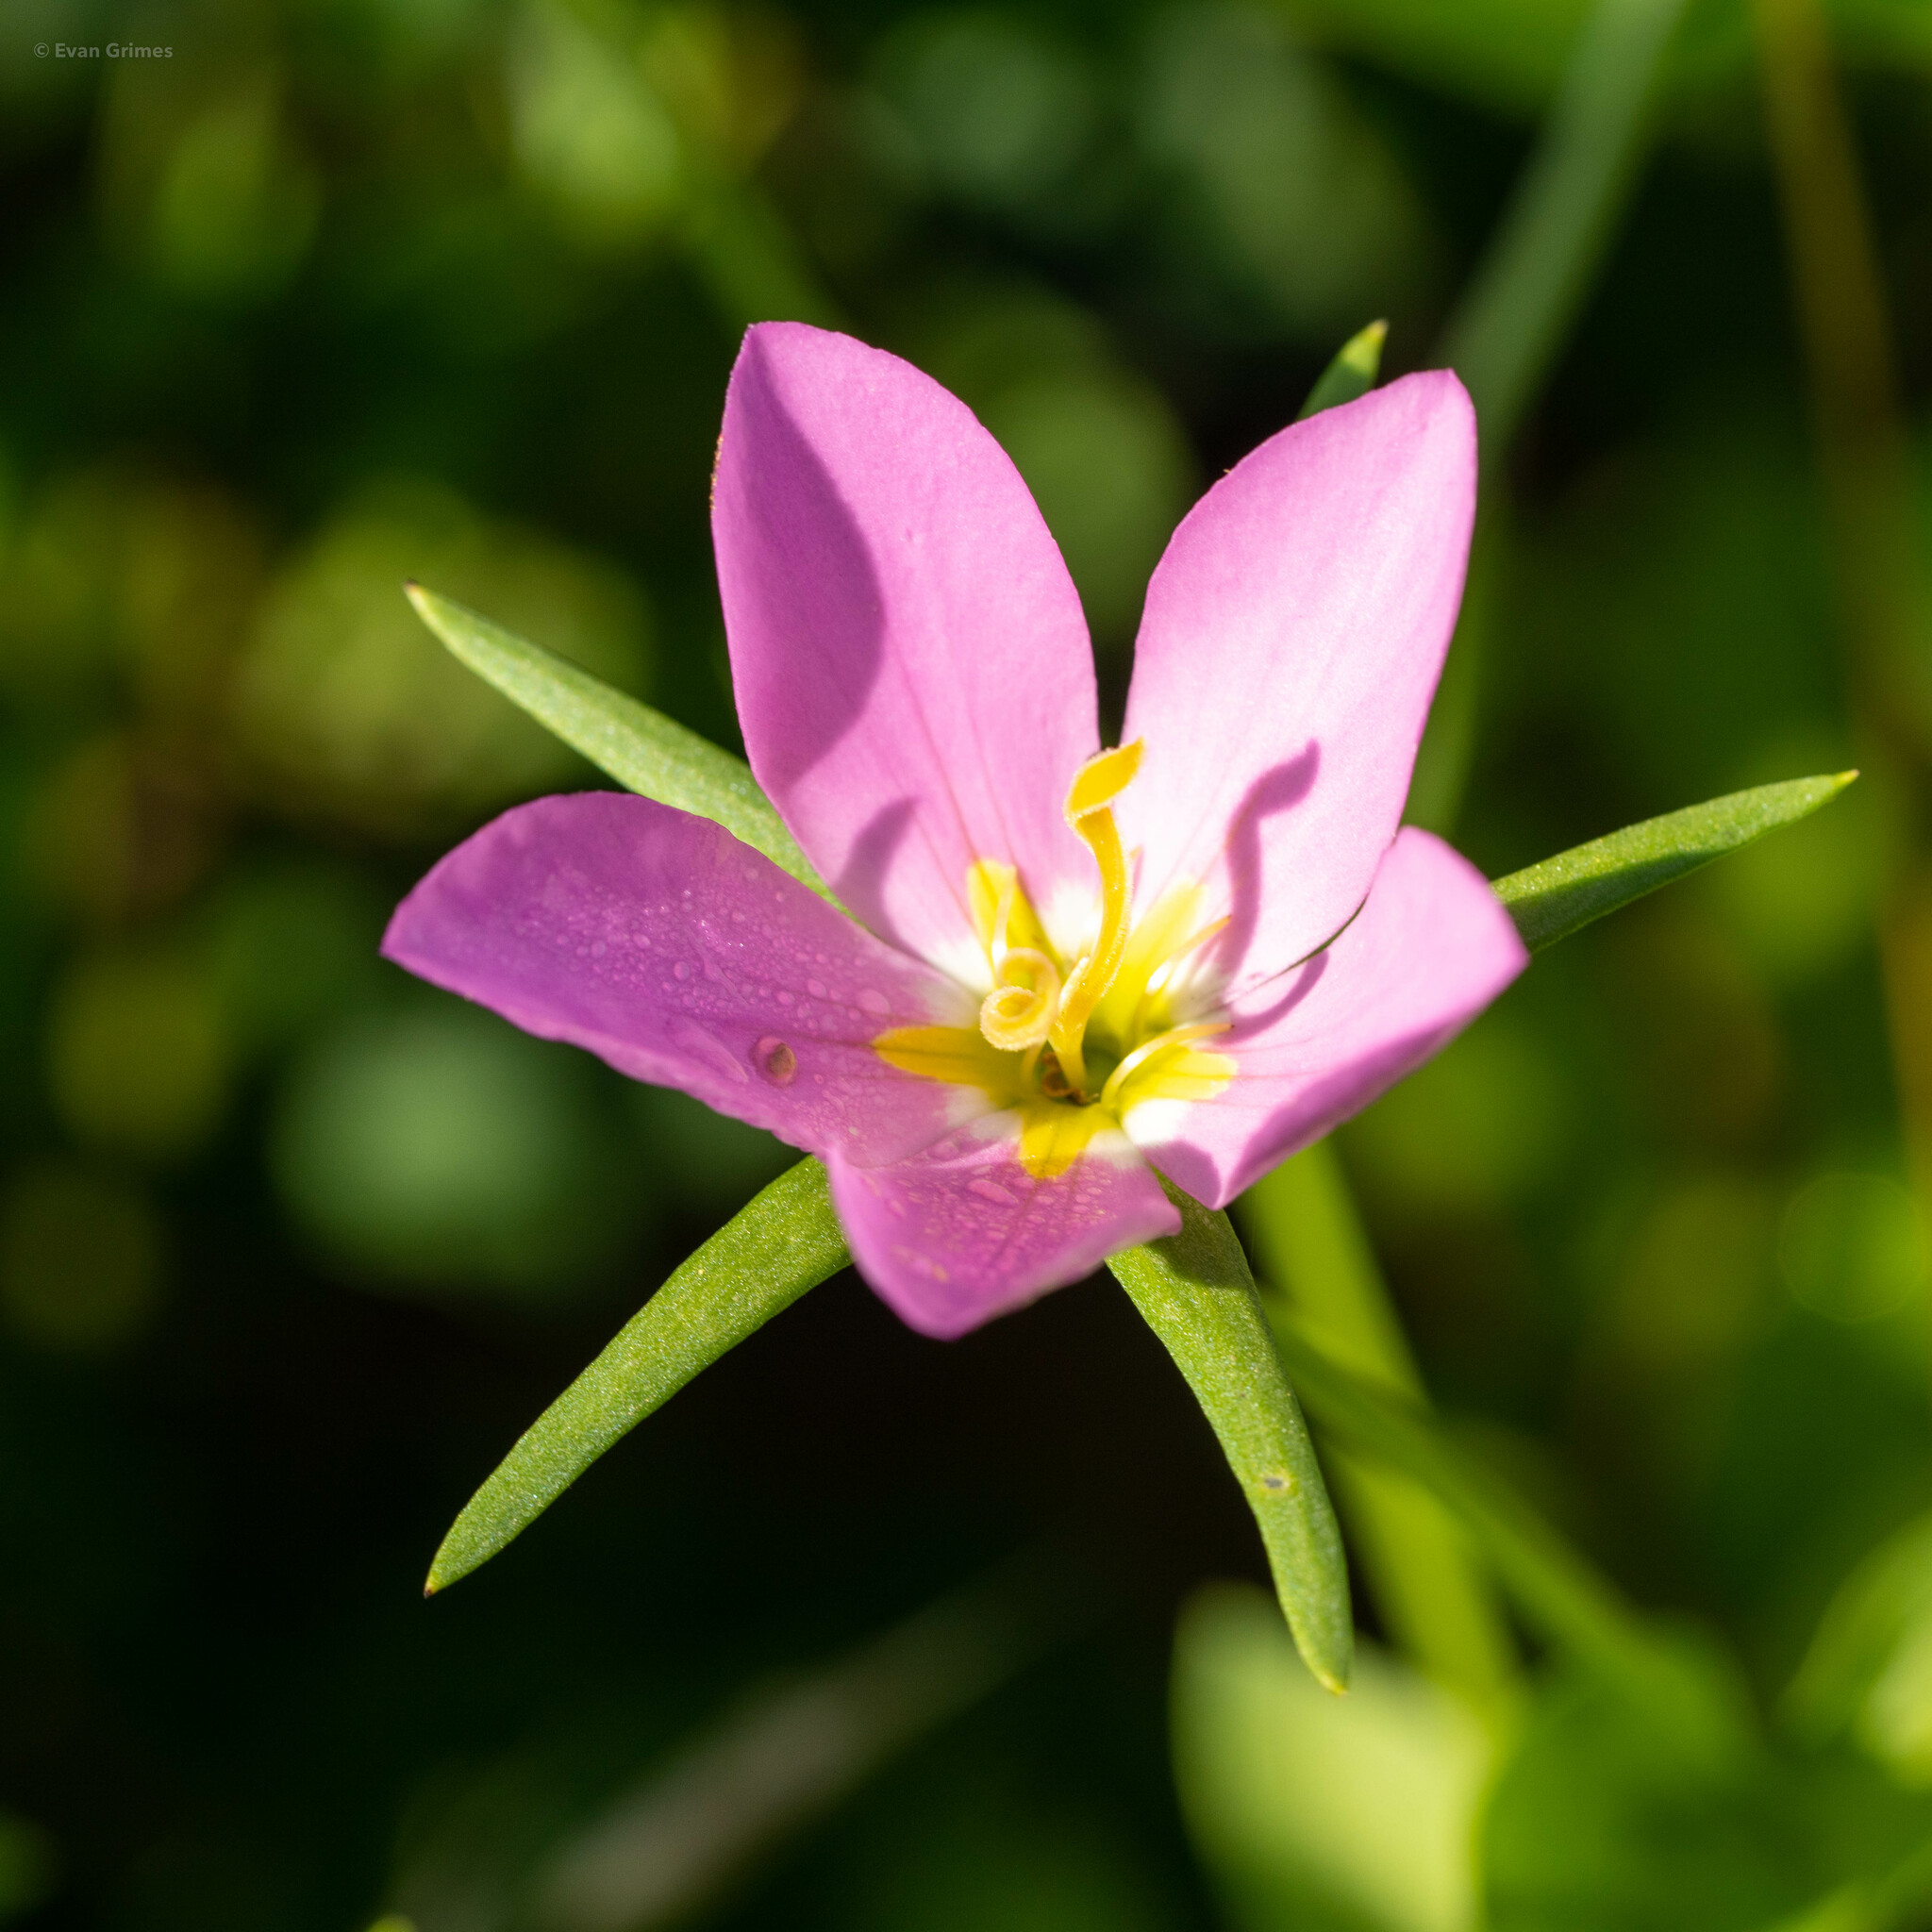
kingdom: Plantae
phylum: Tracheophyta
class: Magnoliopsida
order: Gentianales
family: Gentianaceae
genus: Sabatia
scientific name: Sabatia campestris
